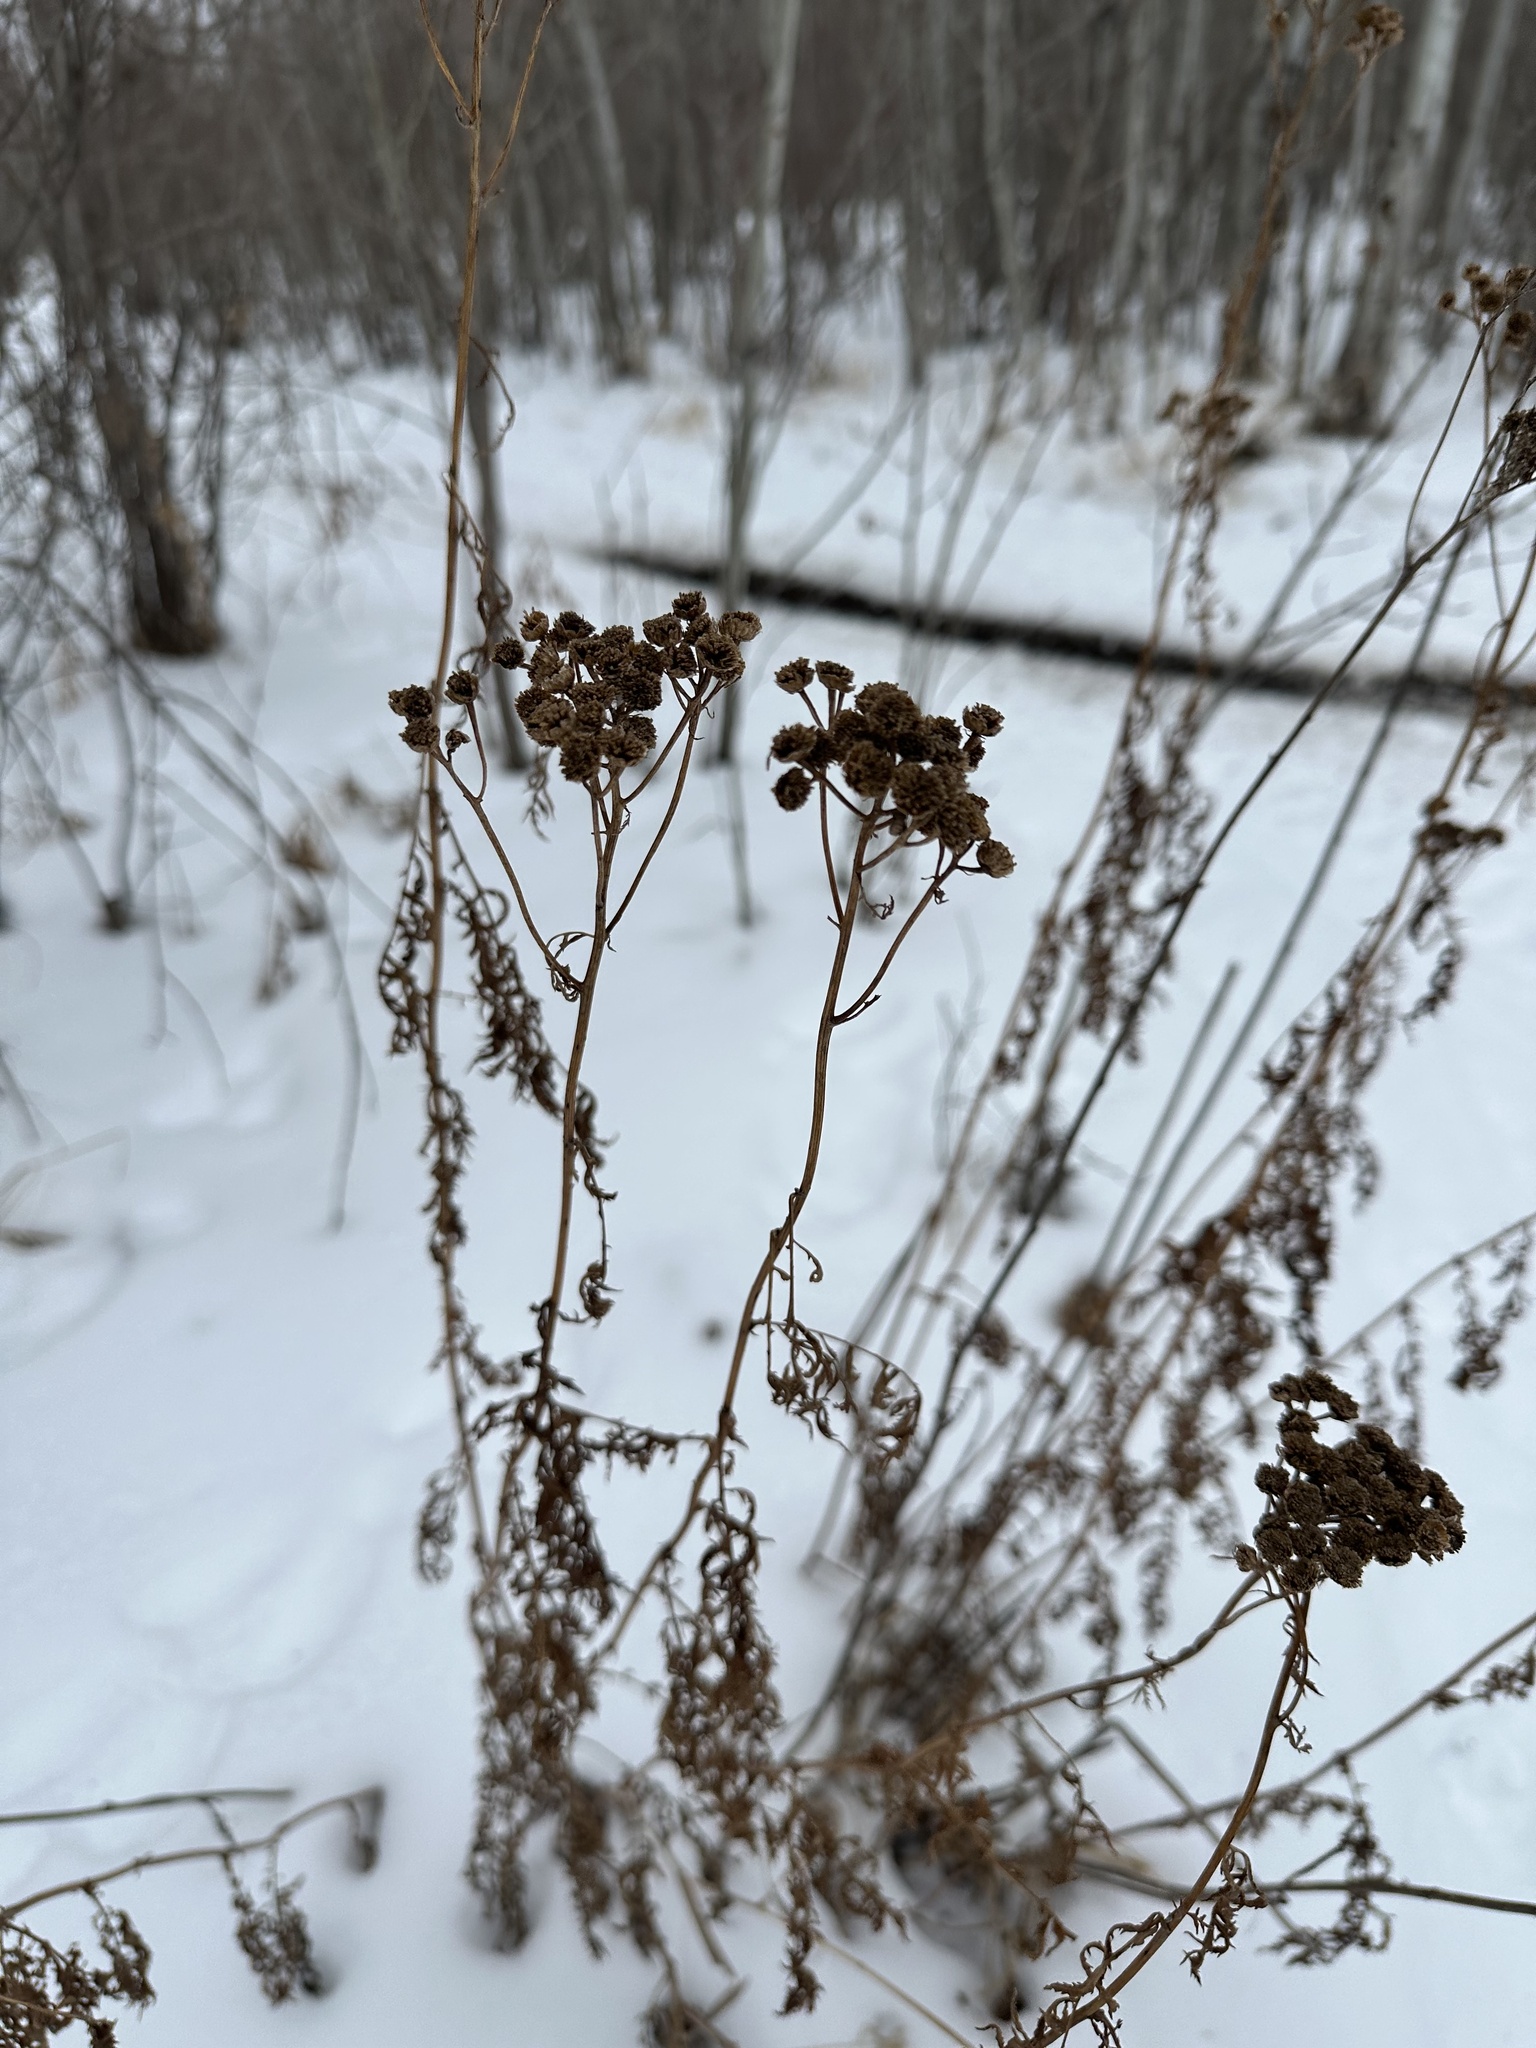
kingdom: Plantae
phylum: Tracheophyta
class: Magnoliopsida
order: Asterales
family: Asteraceae
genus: Tanacetum
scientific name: Tanacetum vulgare
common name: Common tansy
